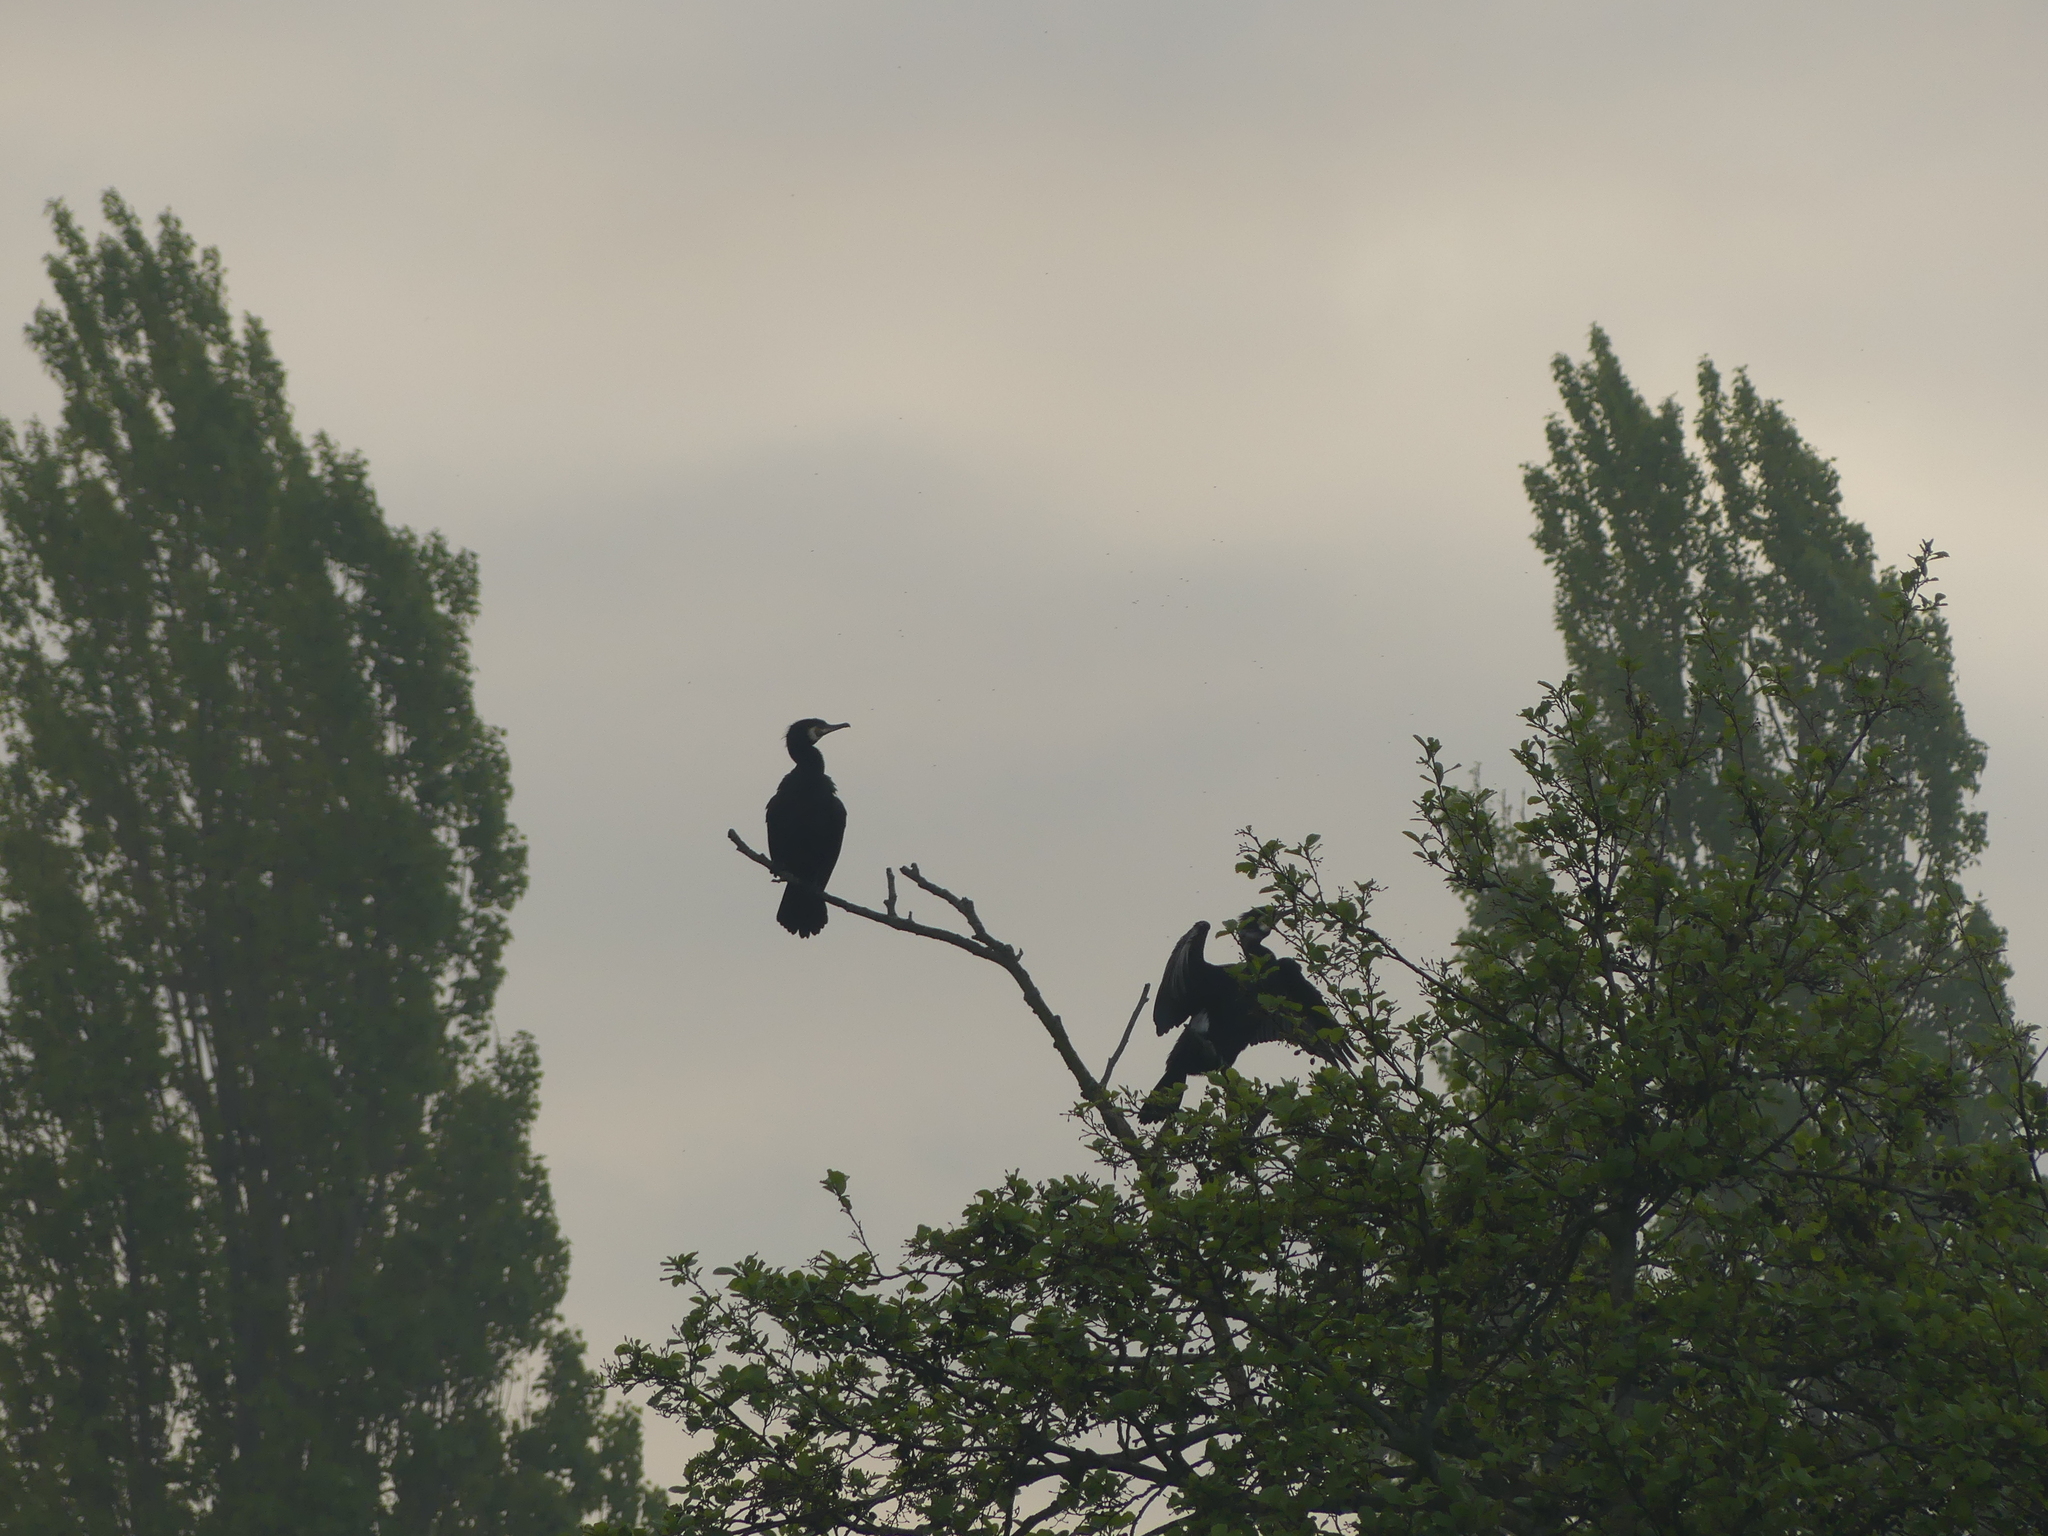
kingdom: Animalia
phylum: Chordata
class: Aves
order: Suliformes
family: Phalacrocoracidae
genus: Phalacrocorax
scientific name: Phalacrocorax carbo
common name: Great cormorant
